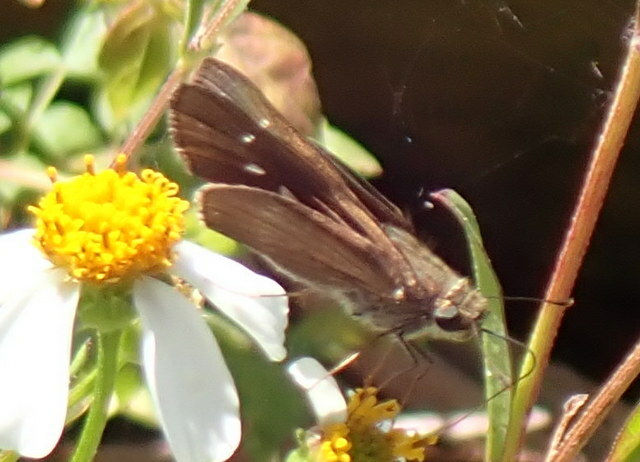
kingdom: Animalia
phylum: Arthropoda
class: Insecta
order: Lepidoptera
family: Hesperiidae
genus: Panoquina
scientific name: Panoquina ocola
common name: Ocola skipper
